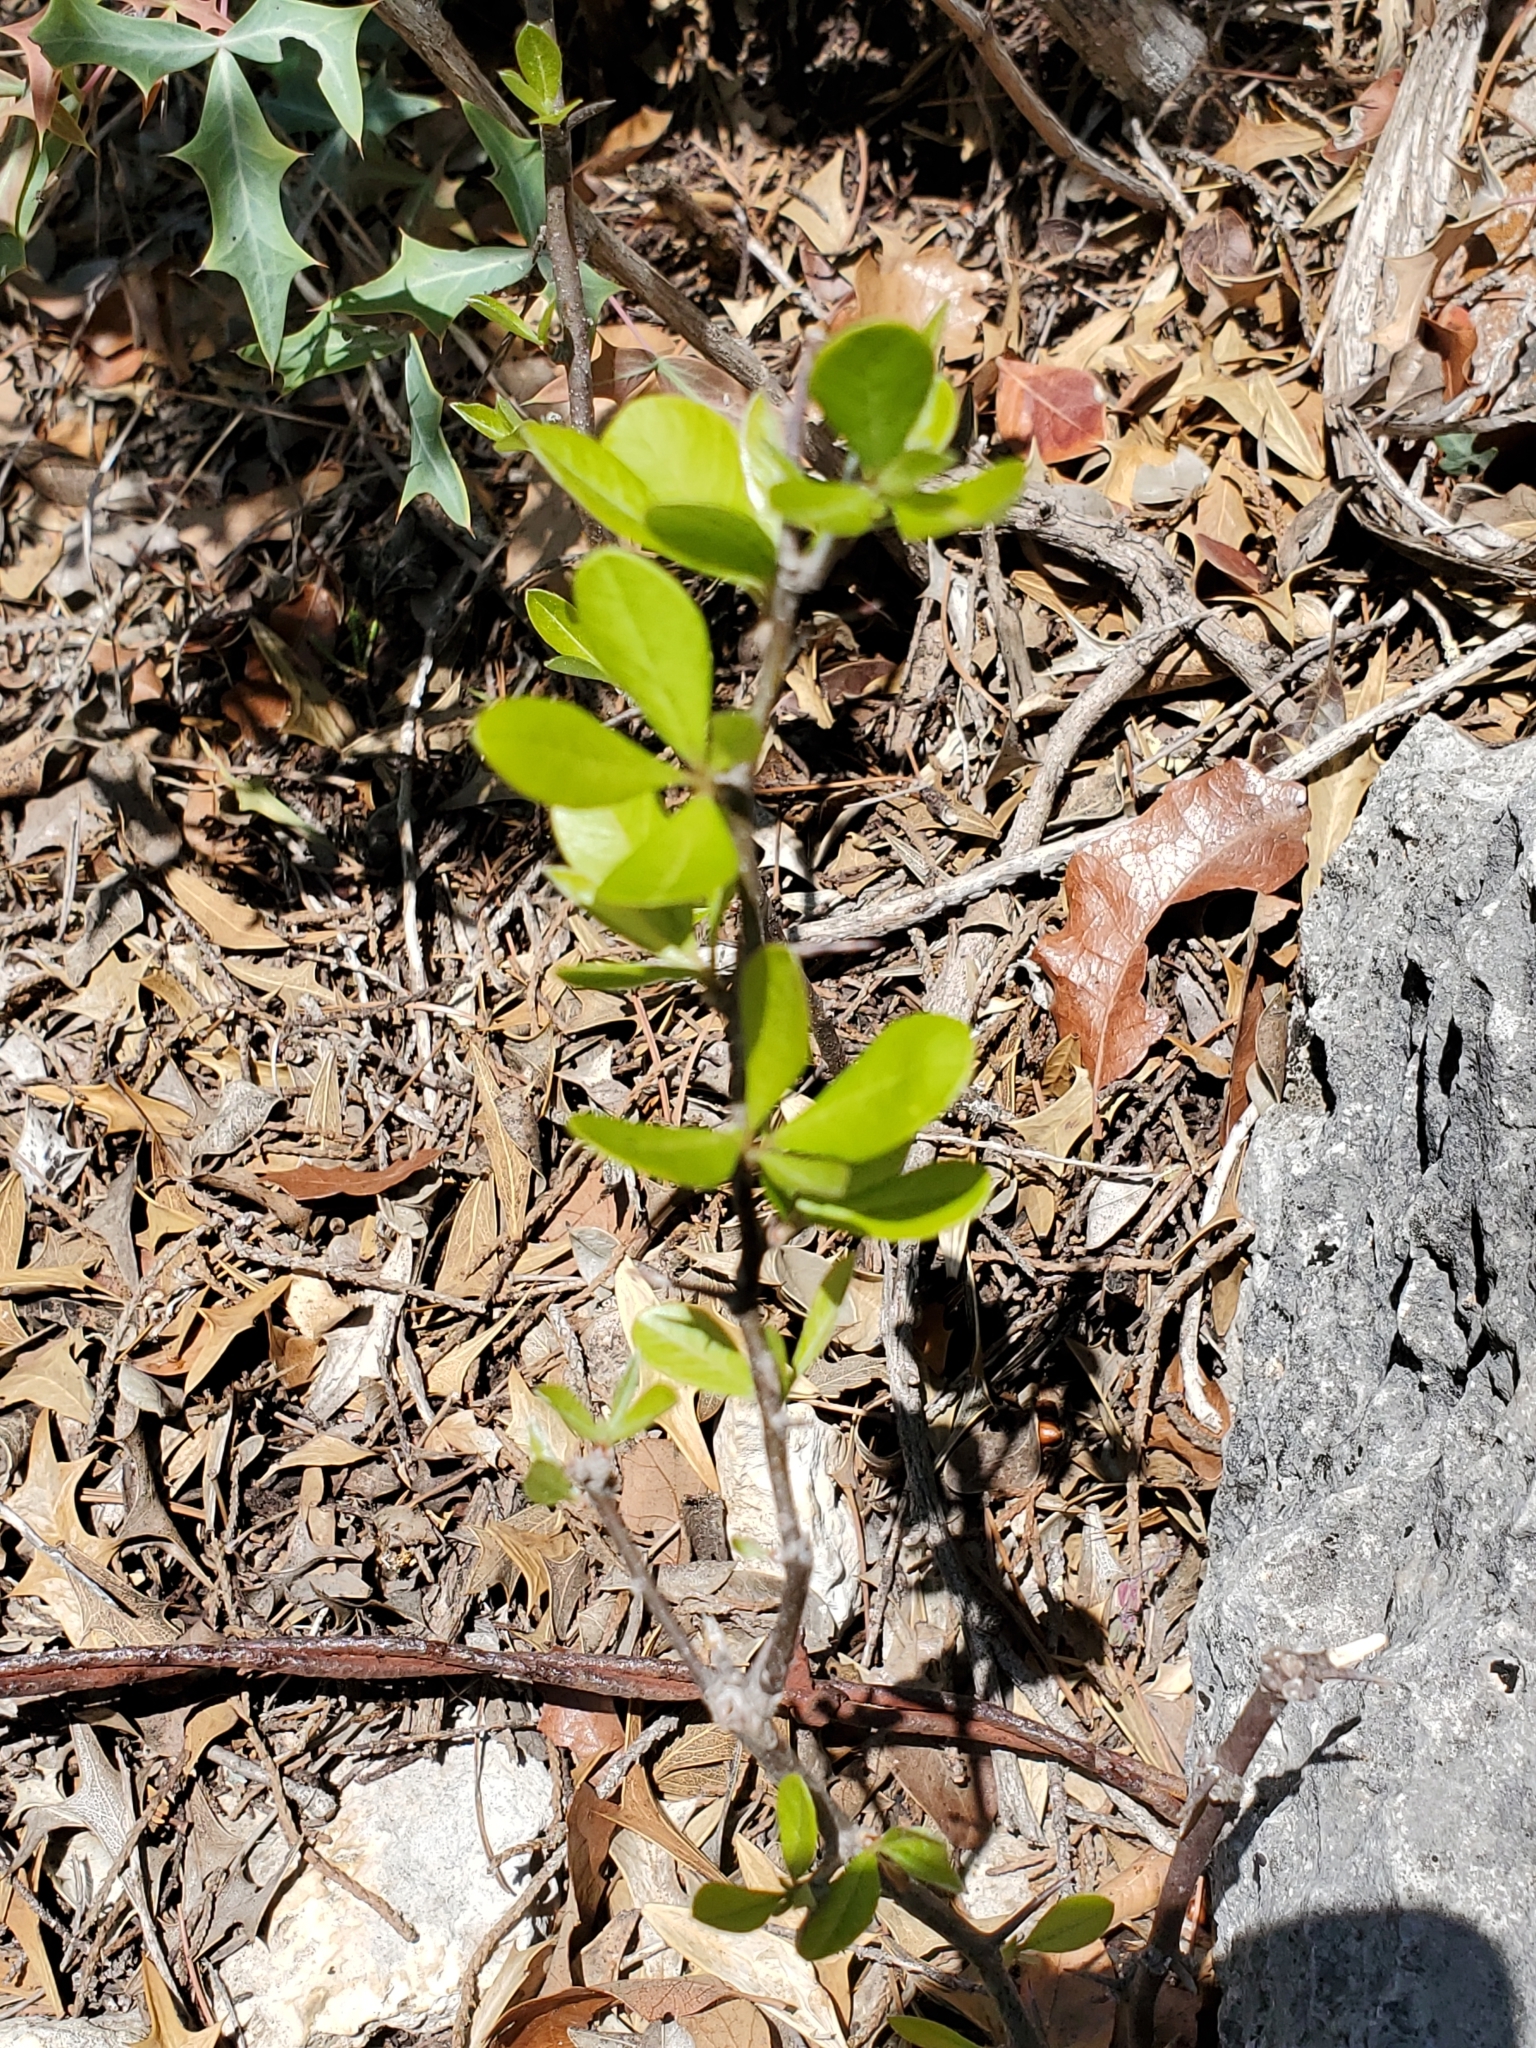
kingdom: Plantae
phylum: Tracheophyta
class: Magnoliopsida
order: Ericales
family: Sapotaceae
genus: Sideroxylon
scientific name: Sideroxylon lanuginosum
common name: Chittamwood
